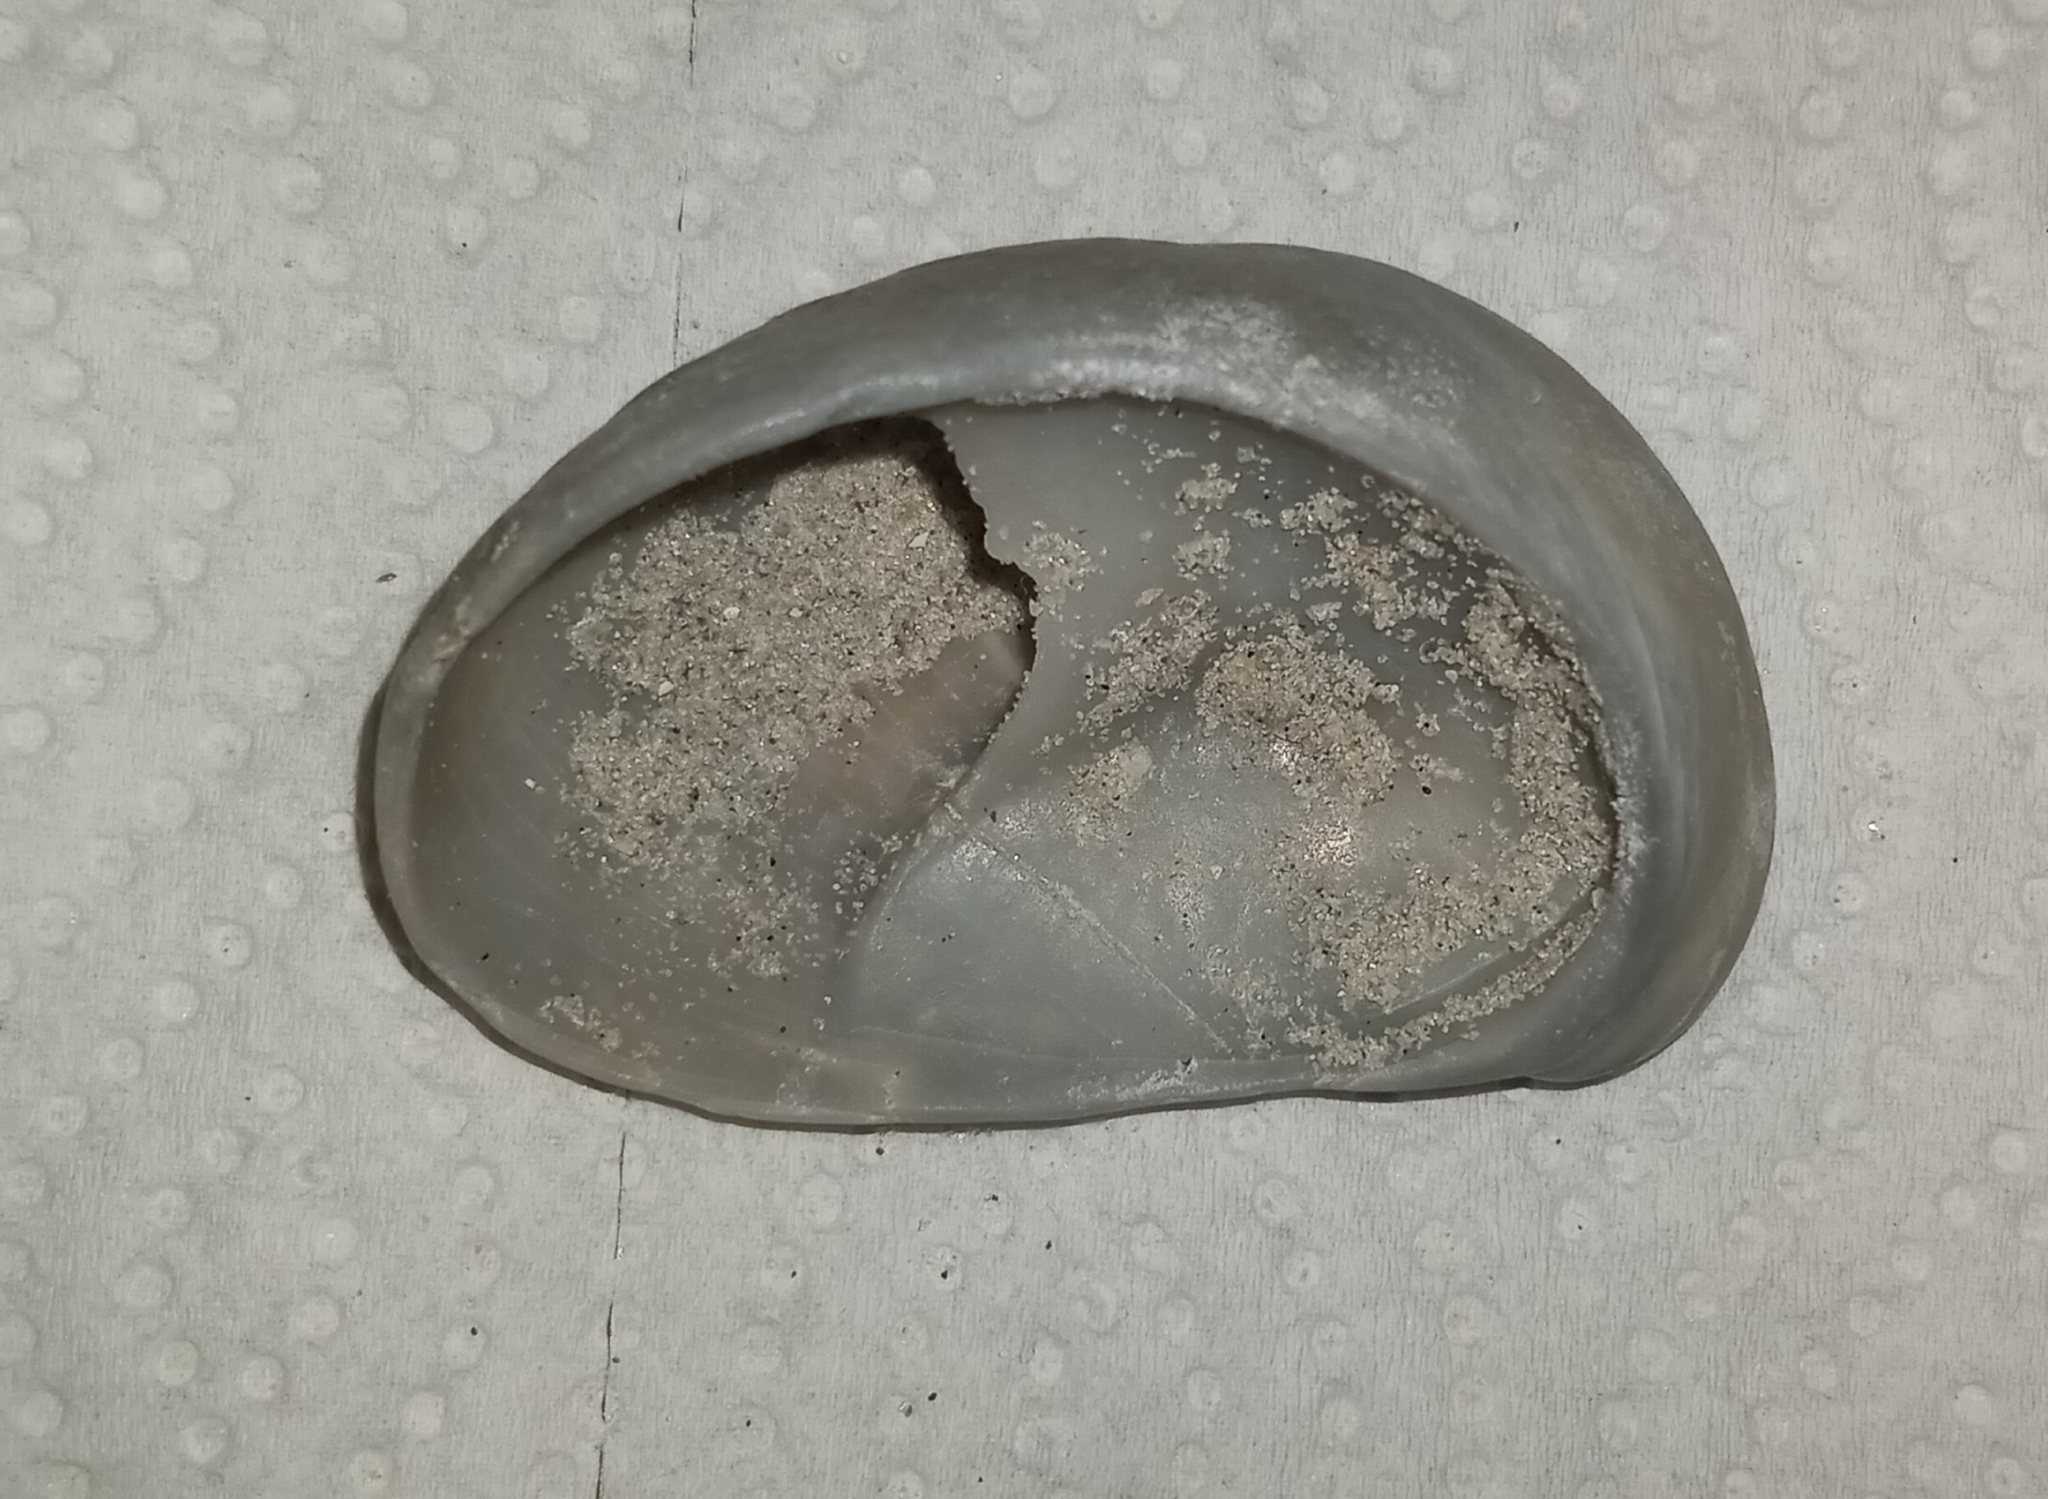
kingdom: Animalia
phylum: Mollusca
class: Gastropoda
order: Littorinimorpha
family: Calyptraeidae
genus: Crepidula
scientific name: Crepidula fornicata
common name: Slipper limpet
